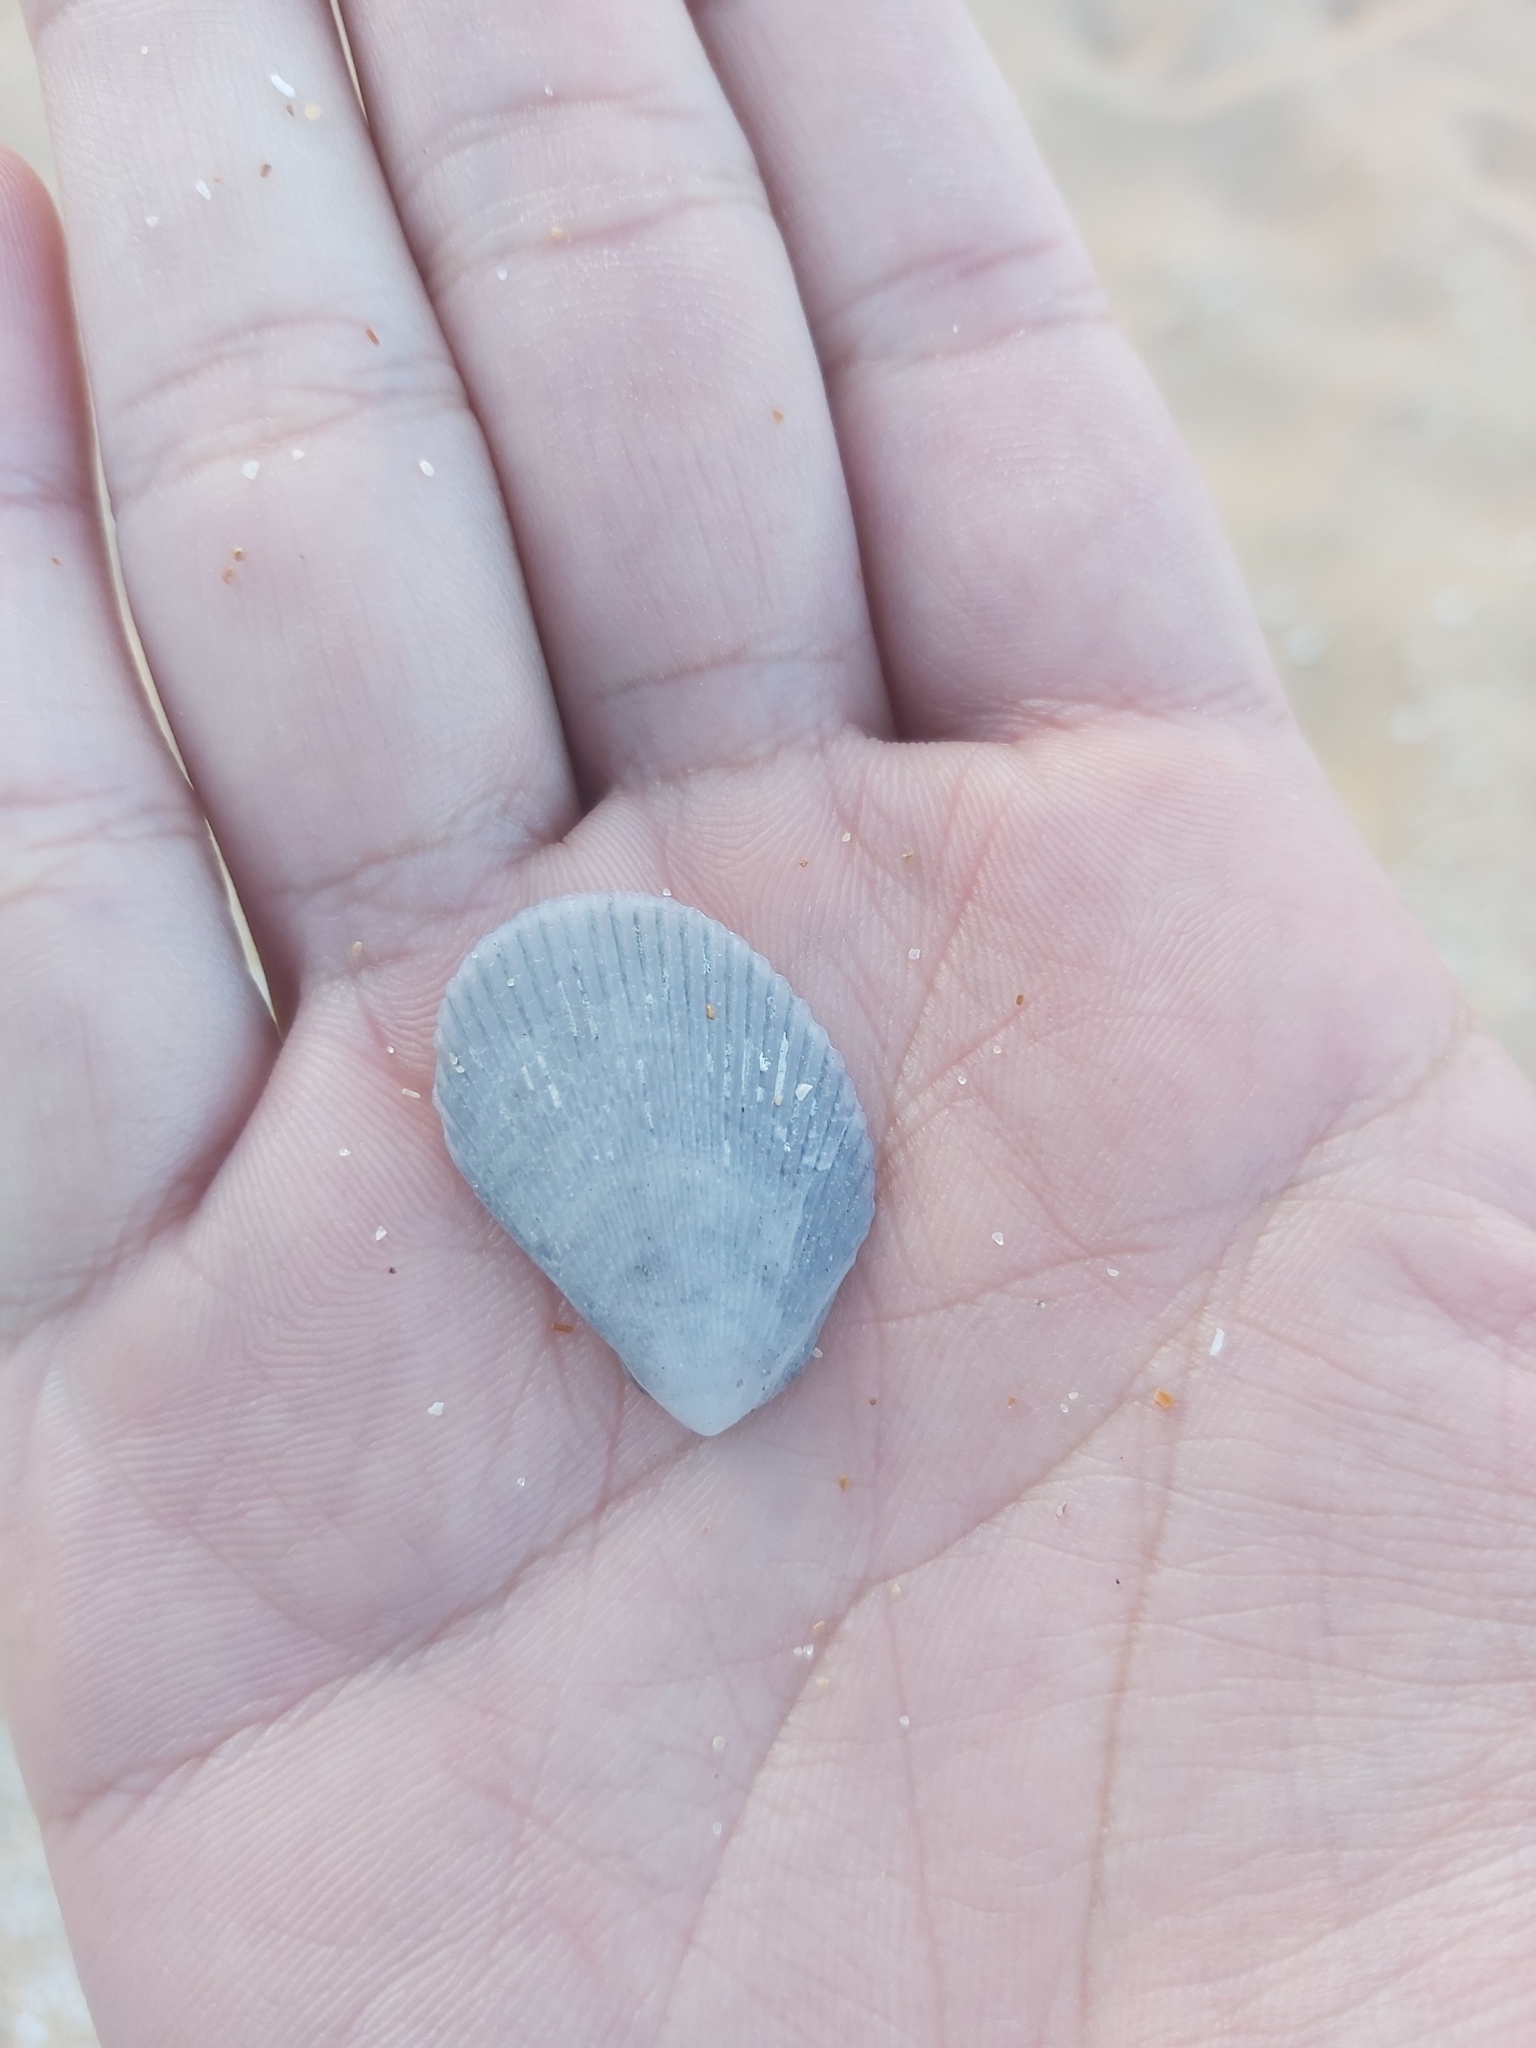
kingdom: Animalia
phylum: Mollusca
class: Bivalvia
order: Limida
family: Limidae
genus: Lima
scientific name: Lima nimbifer
